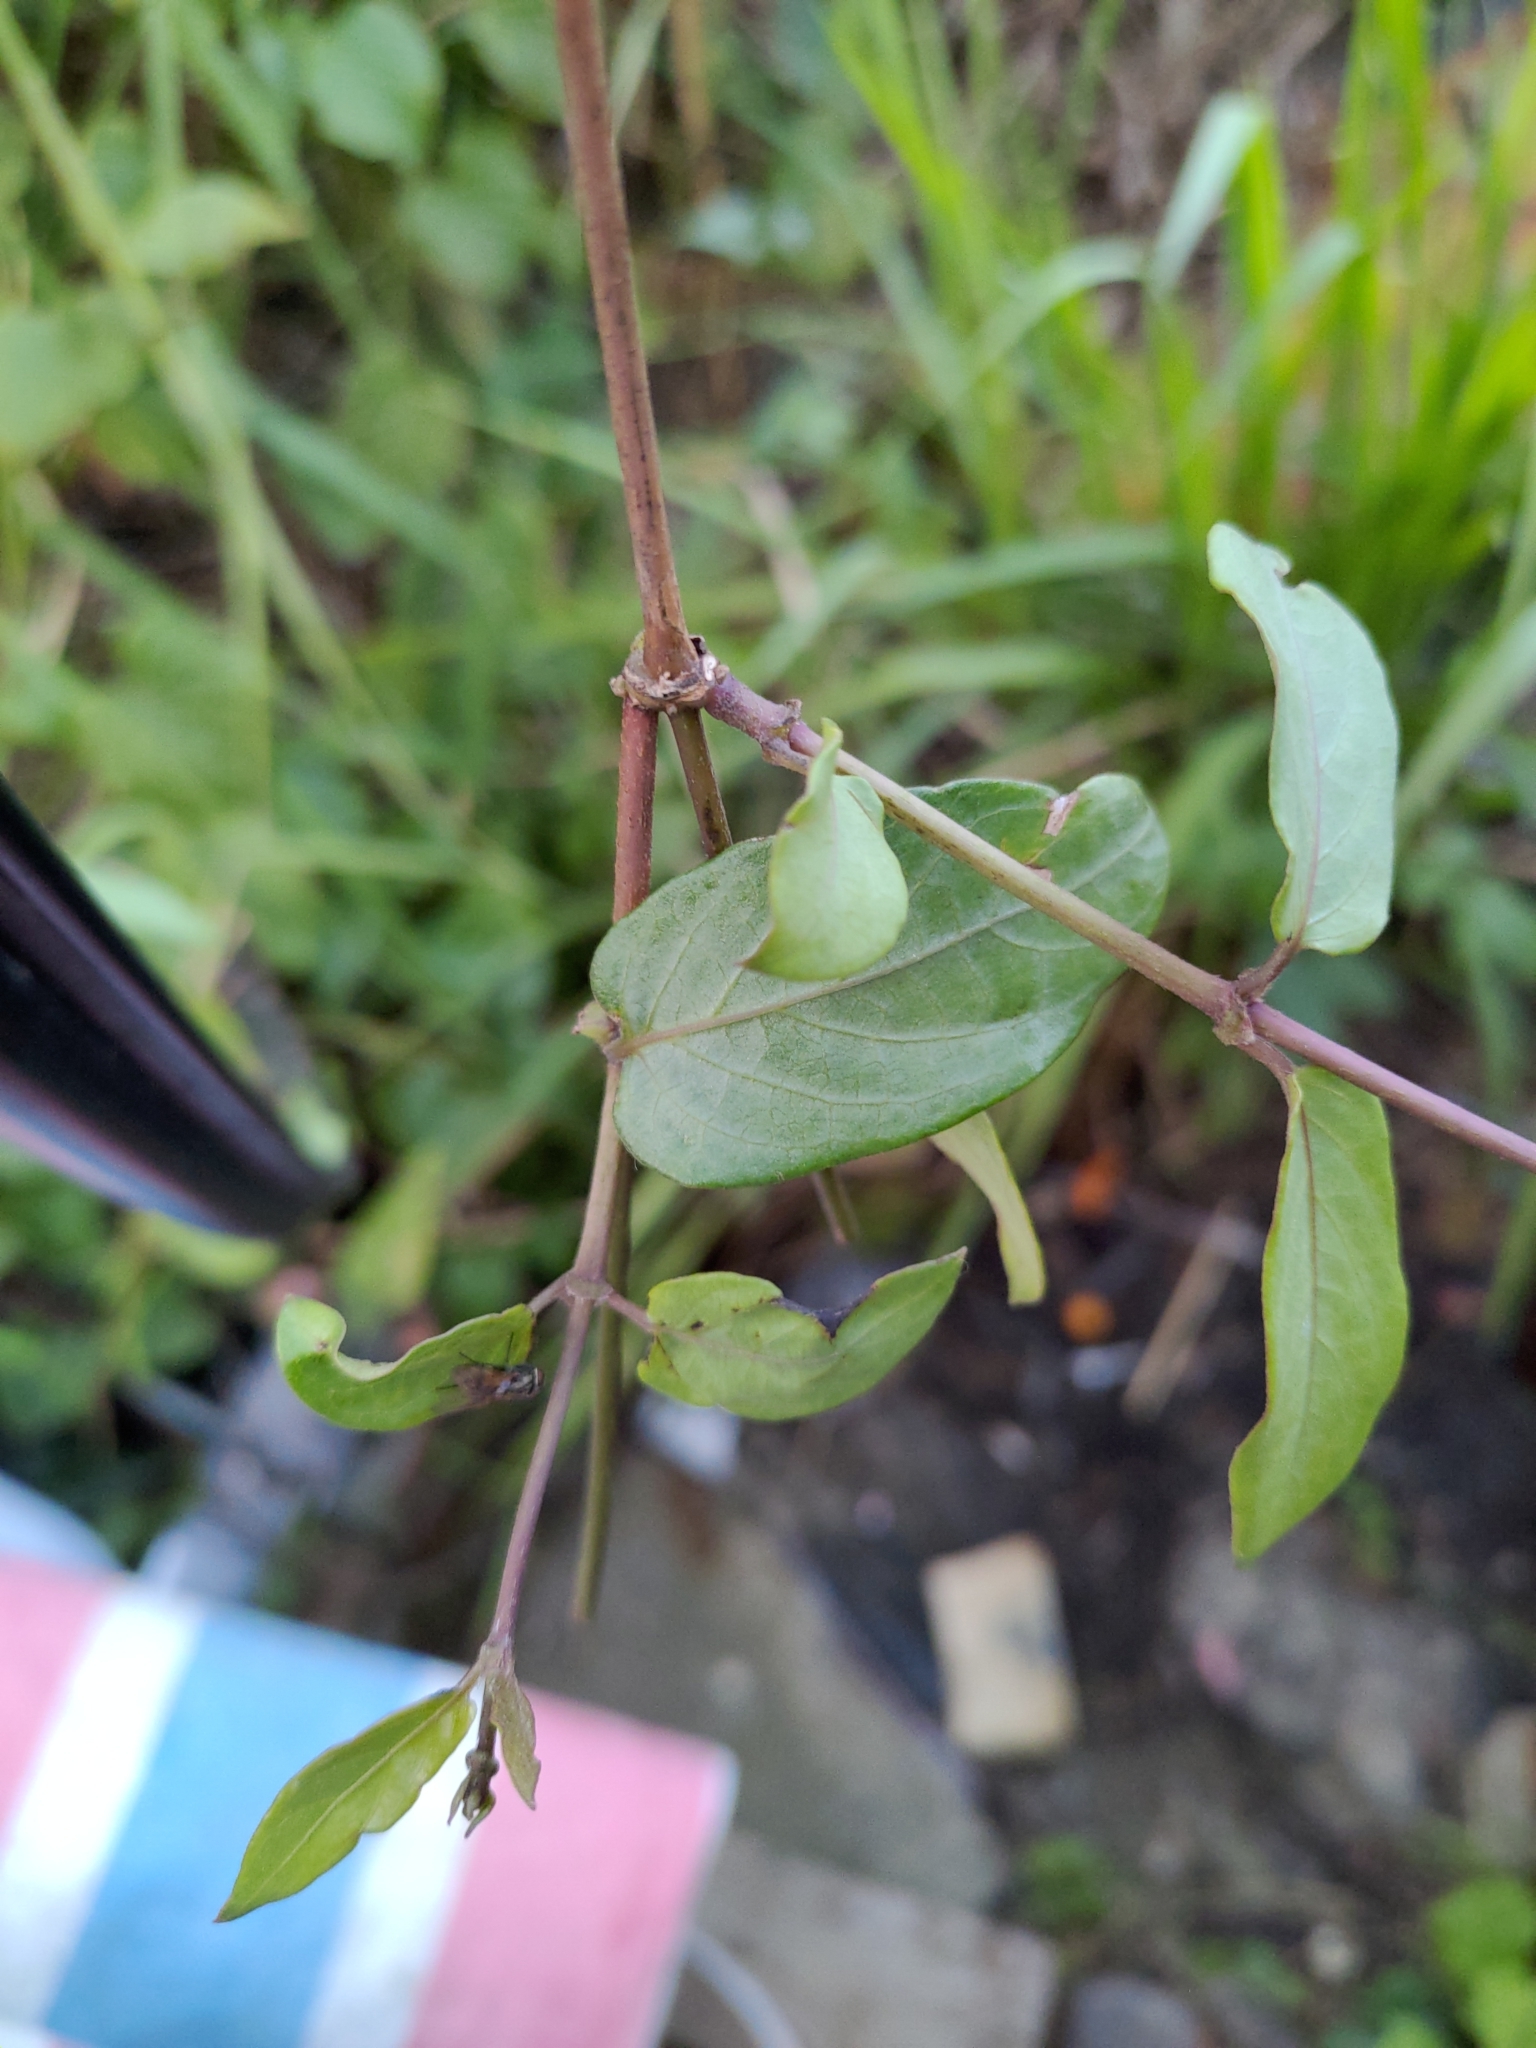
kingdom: Plantae
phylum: Tracheophyta
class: Magnoliopsida
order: Gentianales
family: Rubiaceae
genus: Paederia
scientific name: Paederia foetida
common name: Stinkvine
